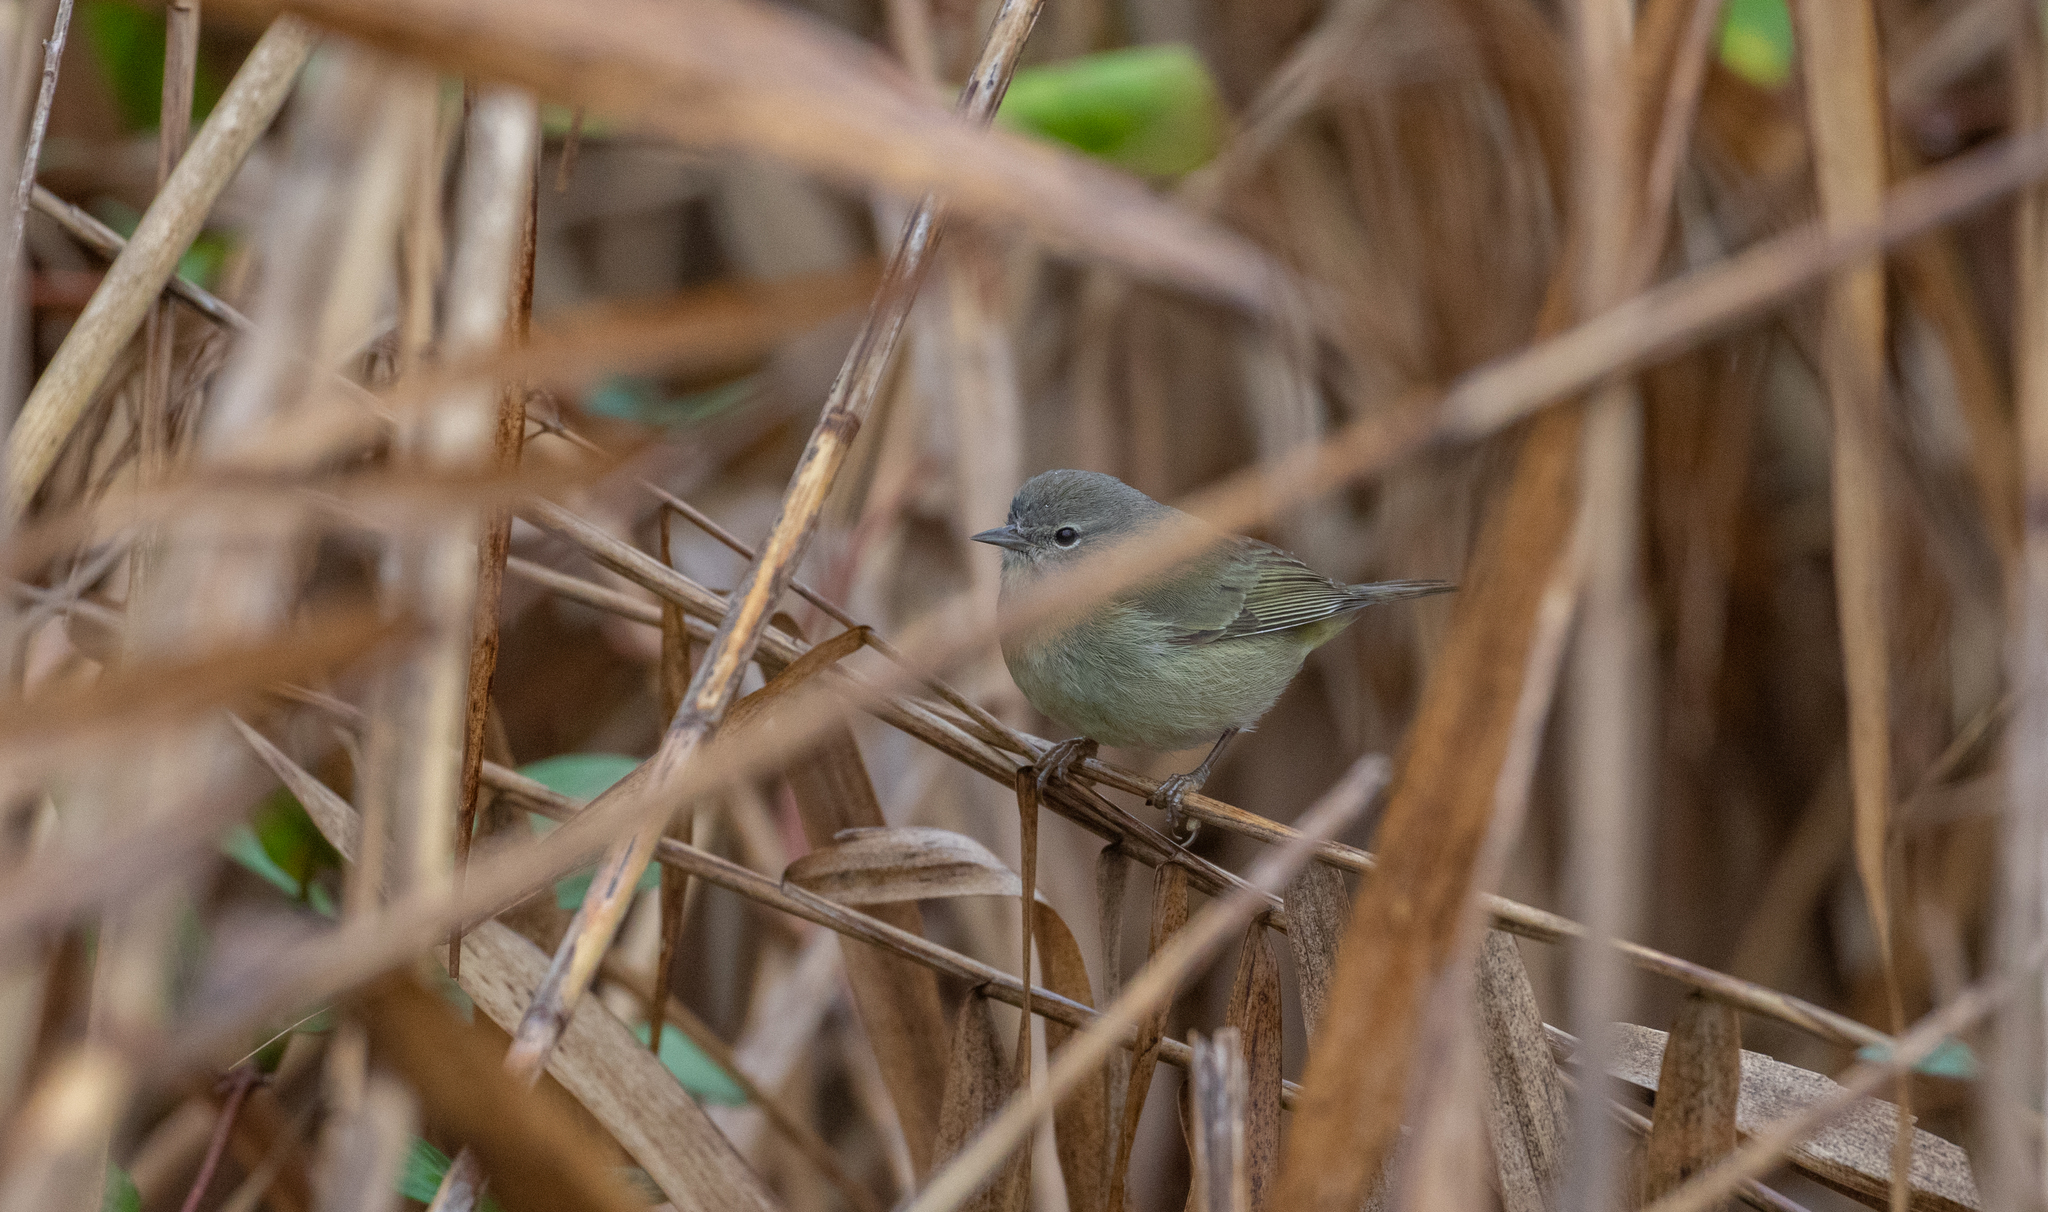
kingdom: Animalia
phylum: Chordata
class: Aves
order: Passeriformes
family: Parulidae
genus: Leiothlypis
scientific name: Leiothlypis celata
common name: Orange-crowned warbler
